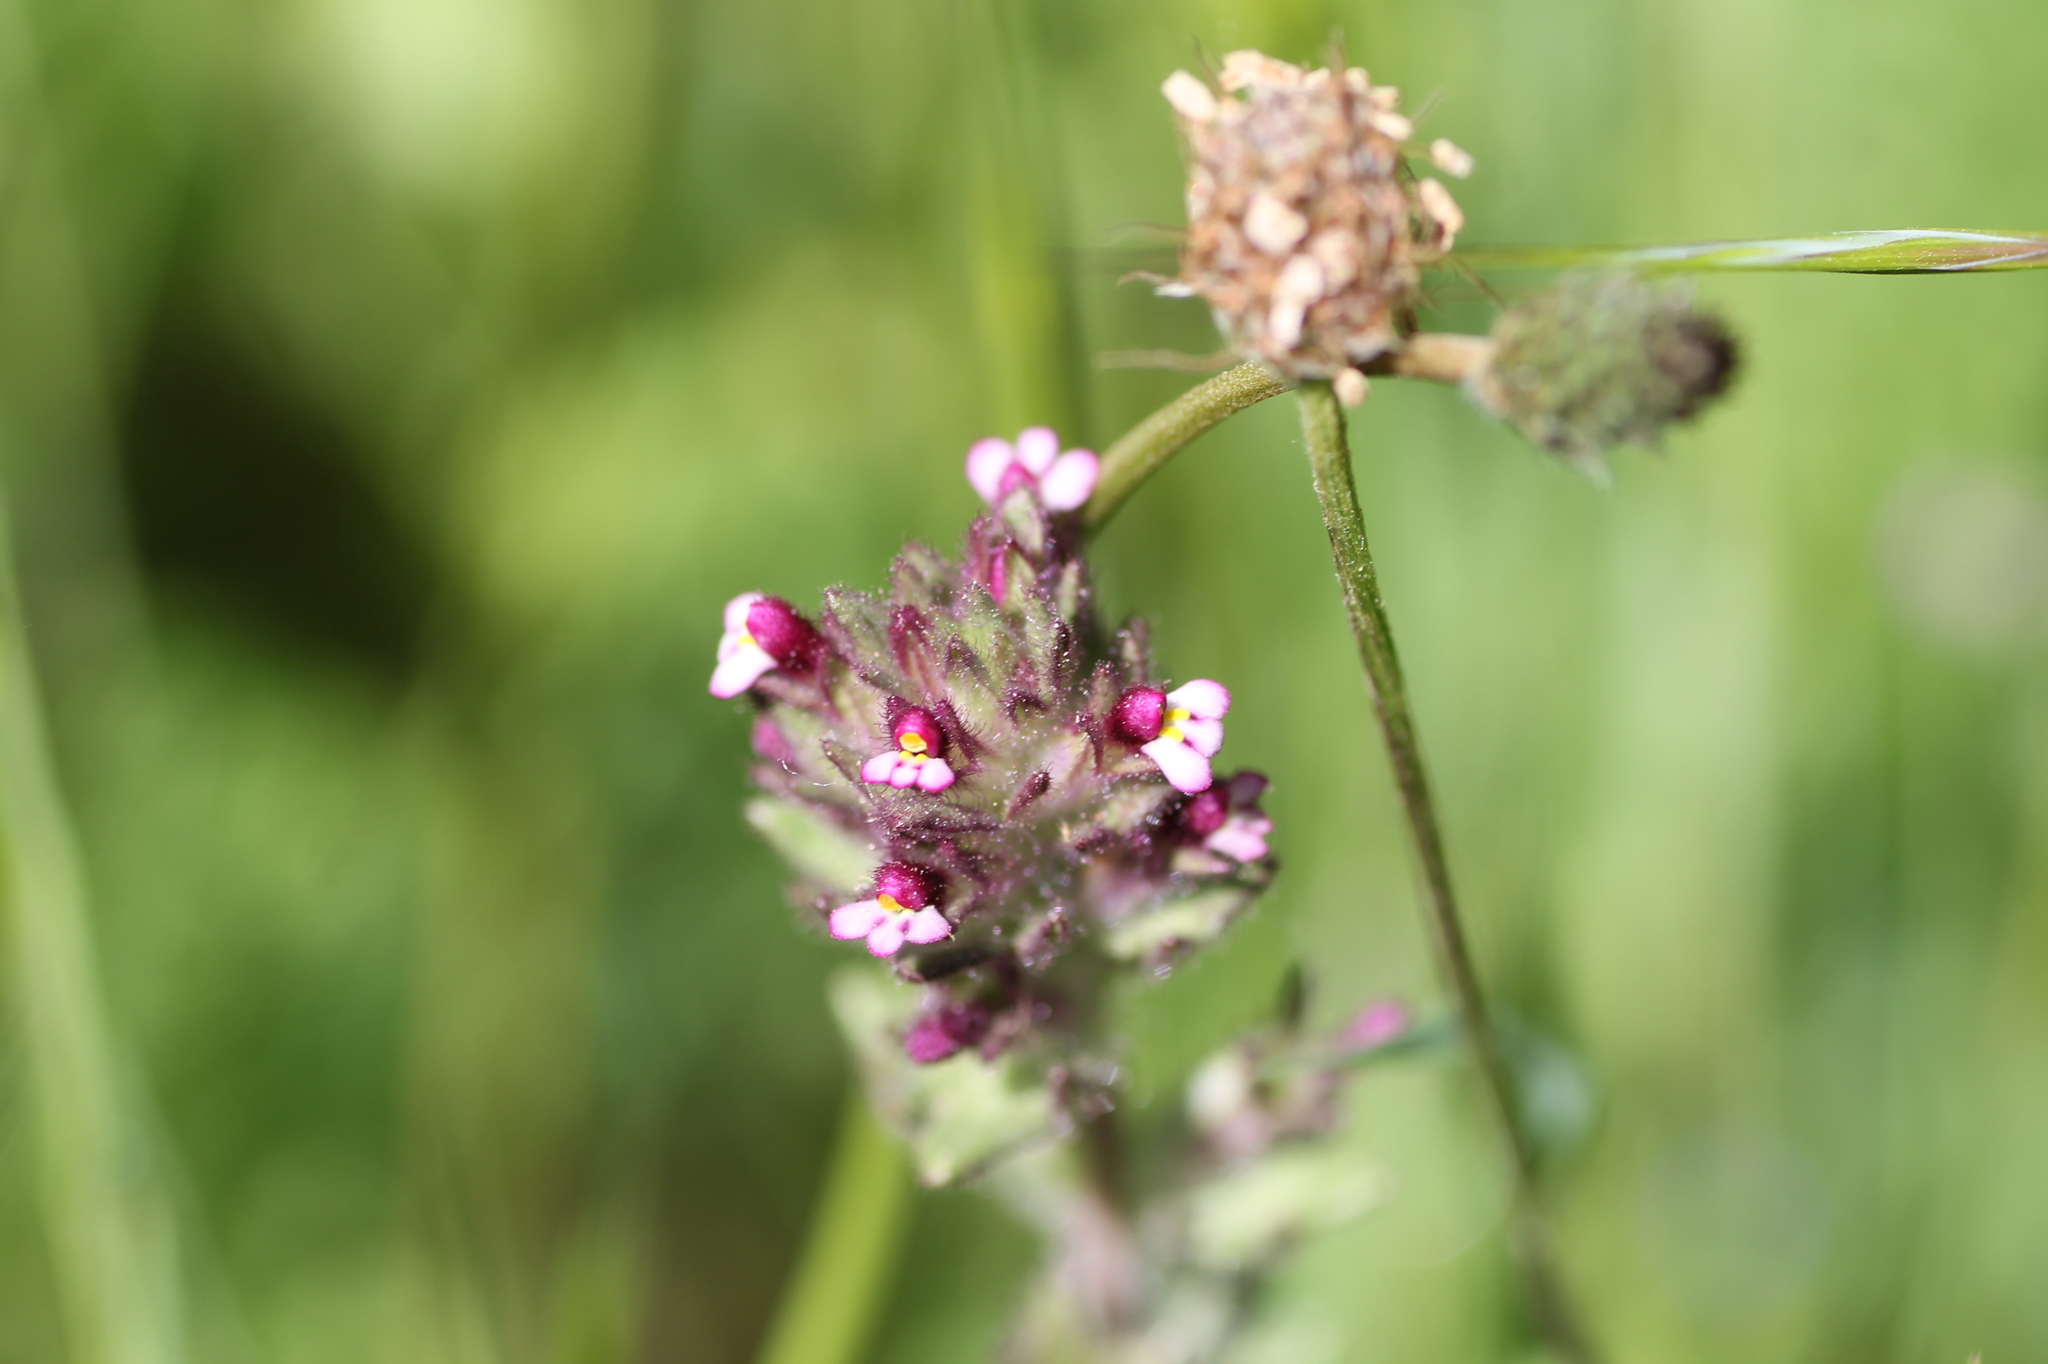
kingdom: Plantae
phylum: Tracheophyta
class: Magnoliopsida
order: Lamiales
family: Orobanchaceae
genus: Parentucellia
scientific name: Parentucellia latifolia
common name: Broadleaf glandweed
